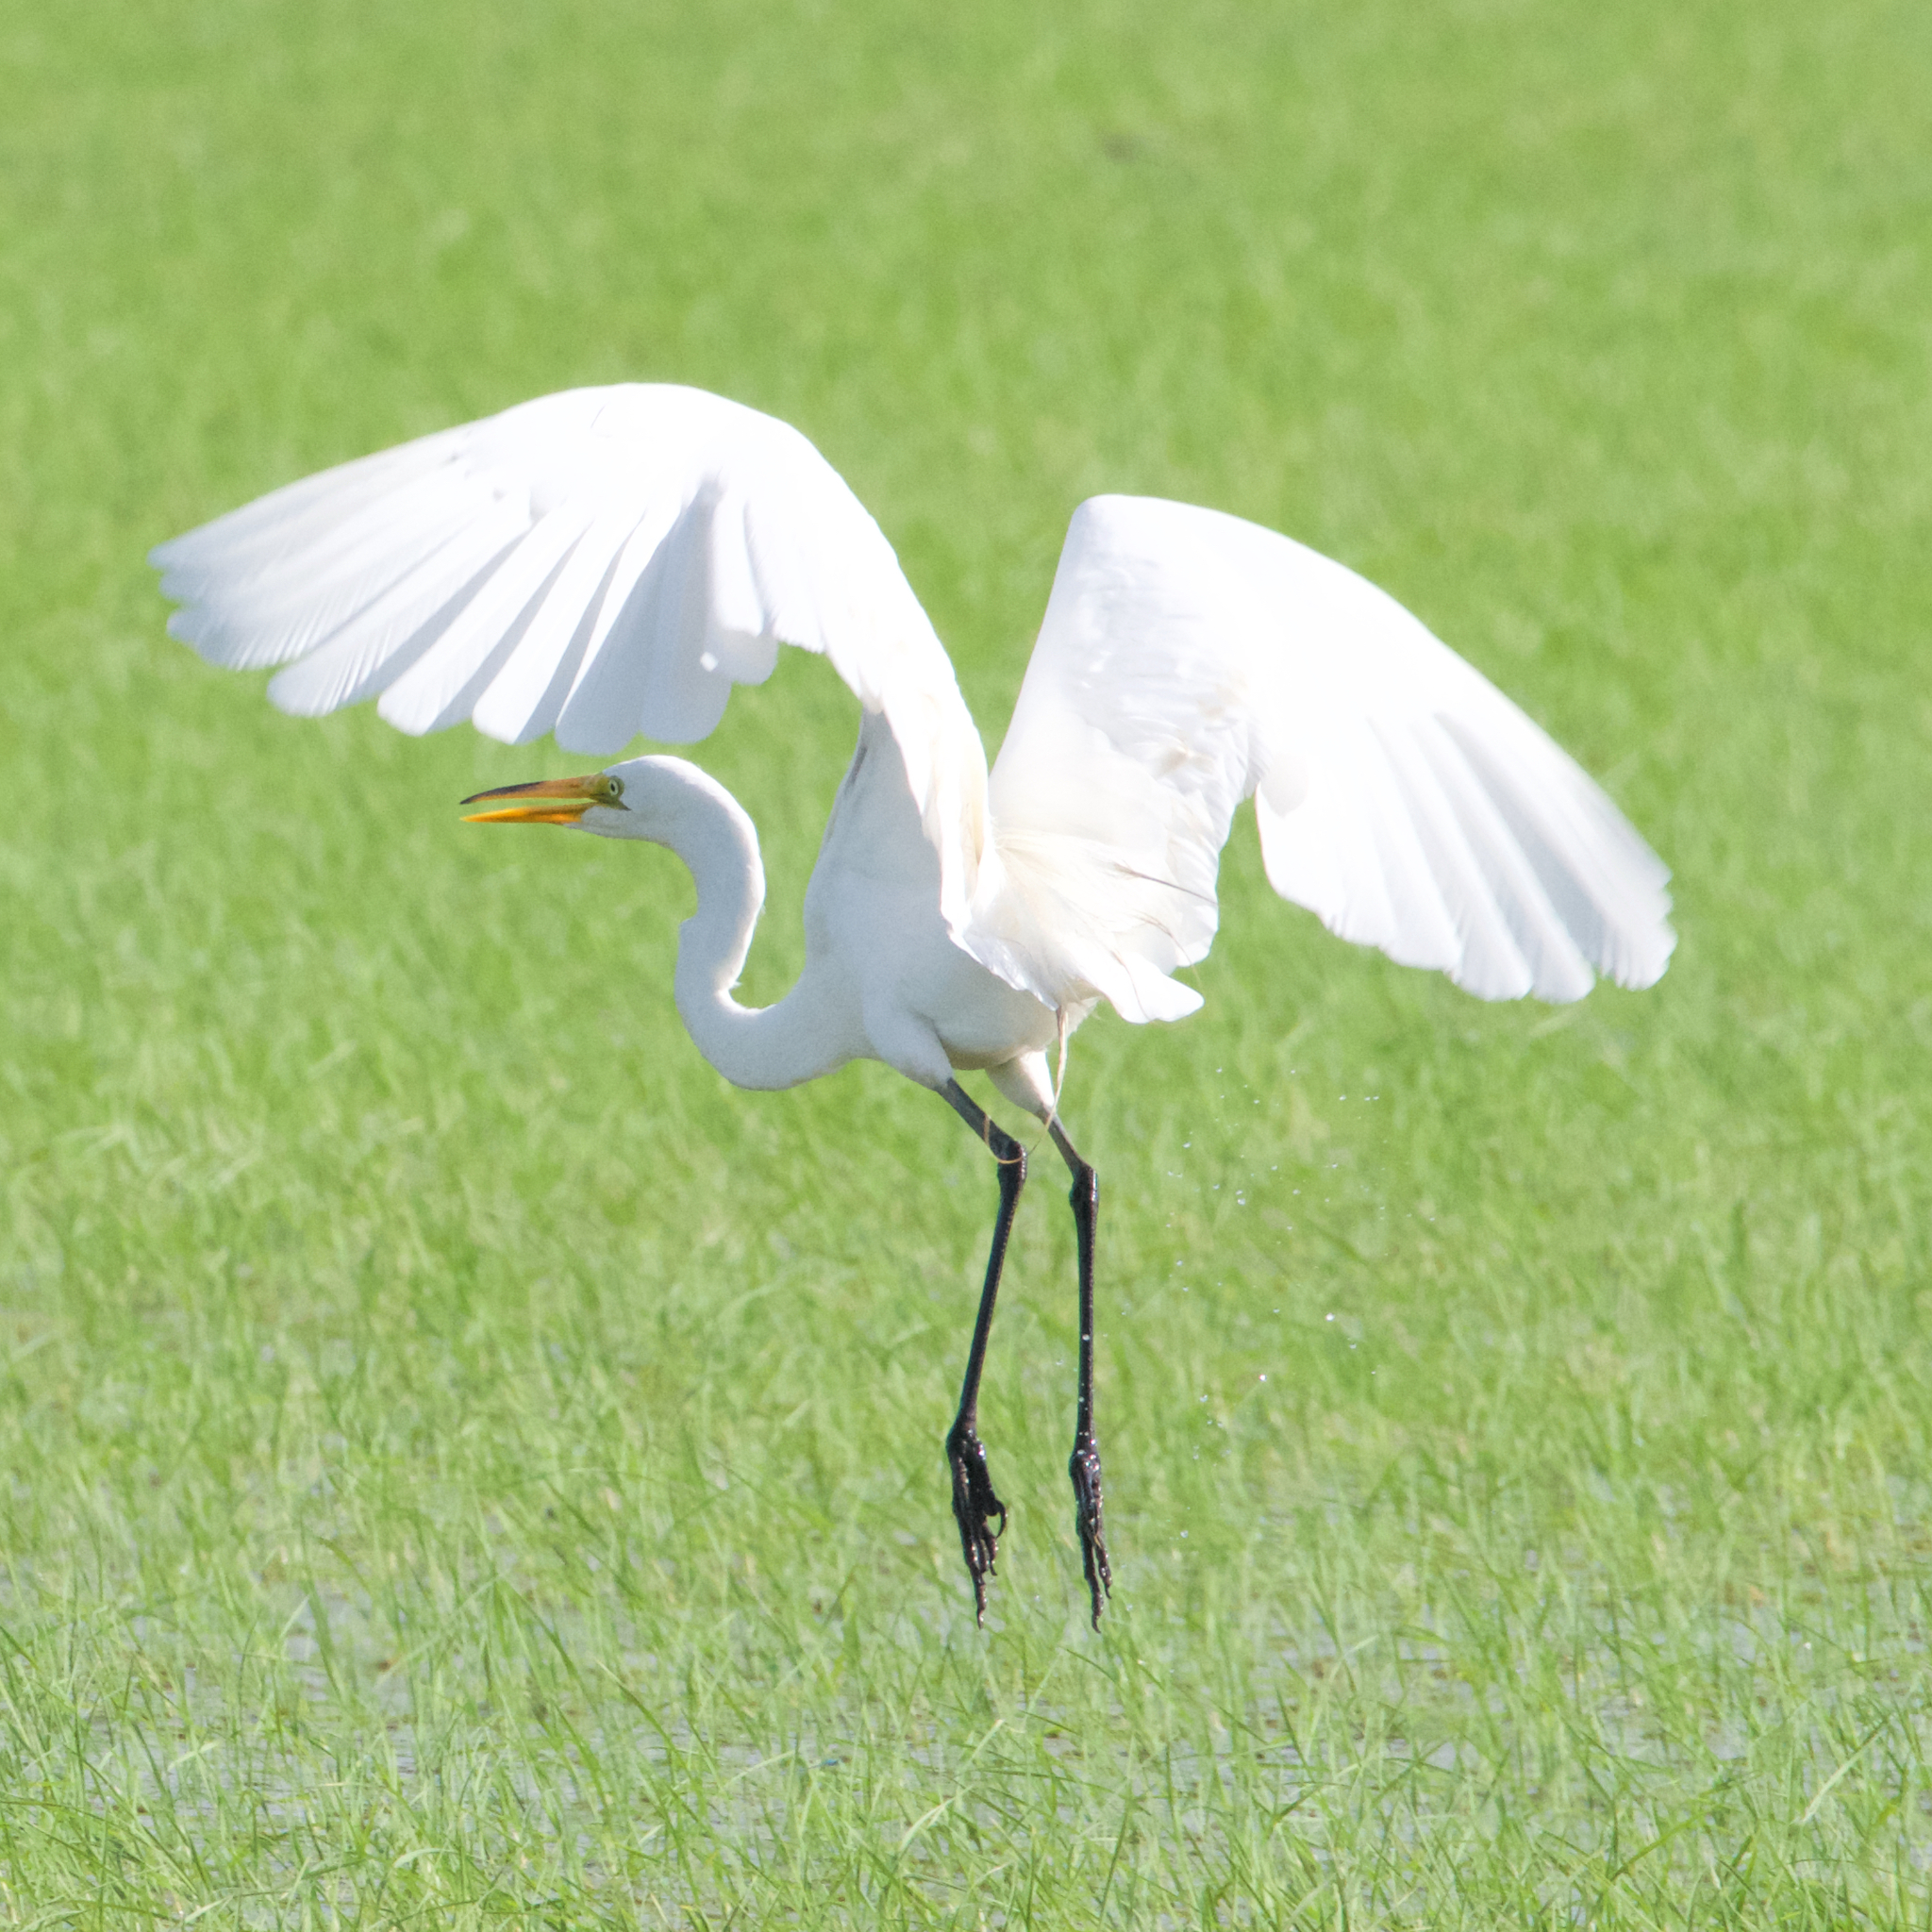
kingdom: Animalia
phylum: Chordata
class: Aves
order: Pelecaniformes
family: Ardeidae
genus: Ardea
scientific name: Ardea alba
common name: Great egret
